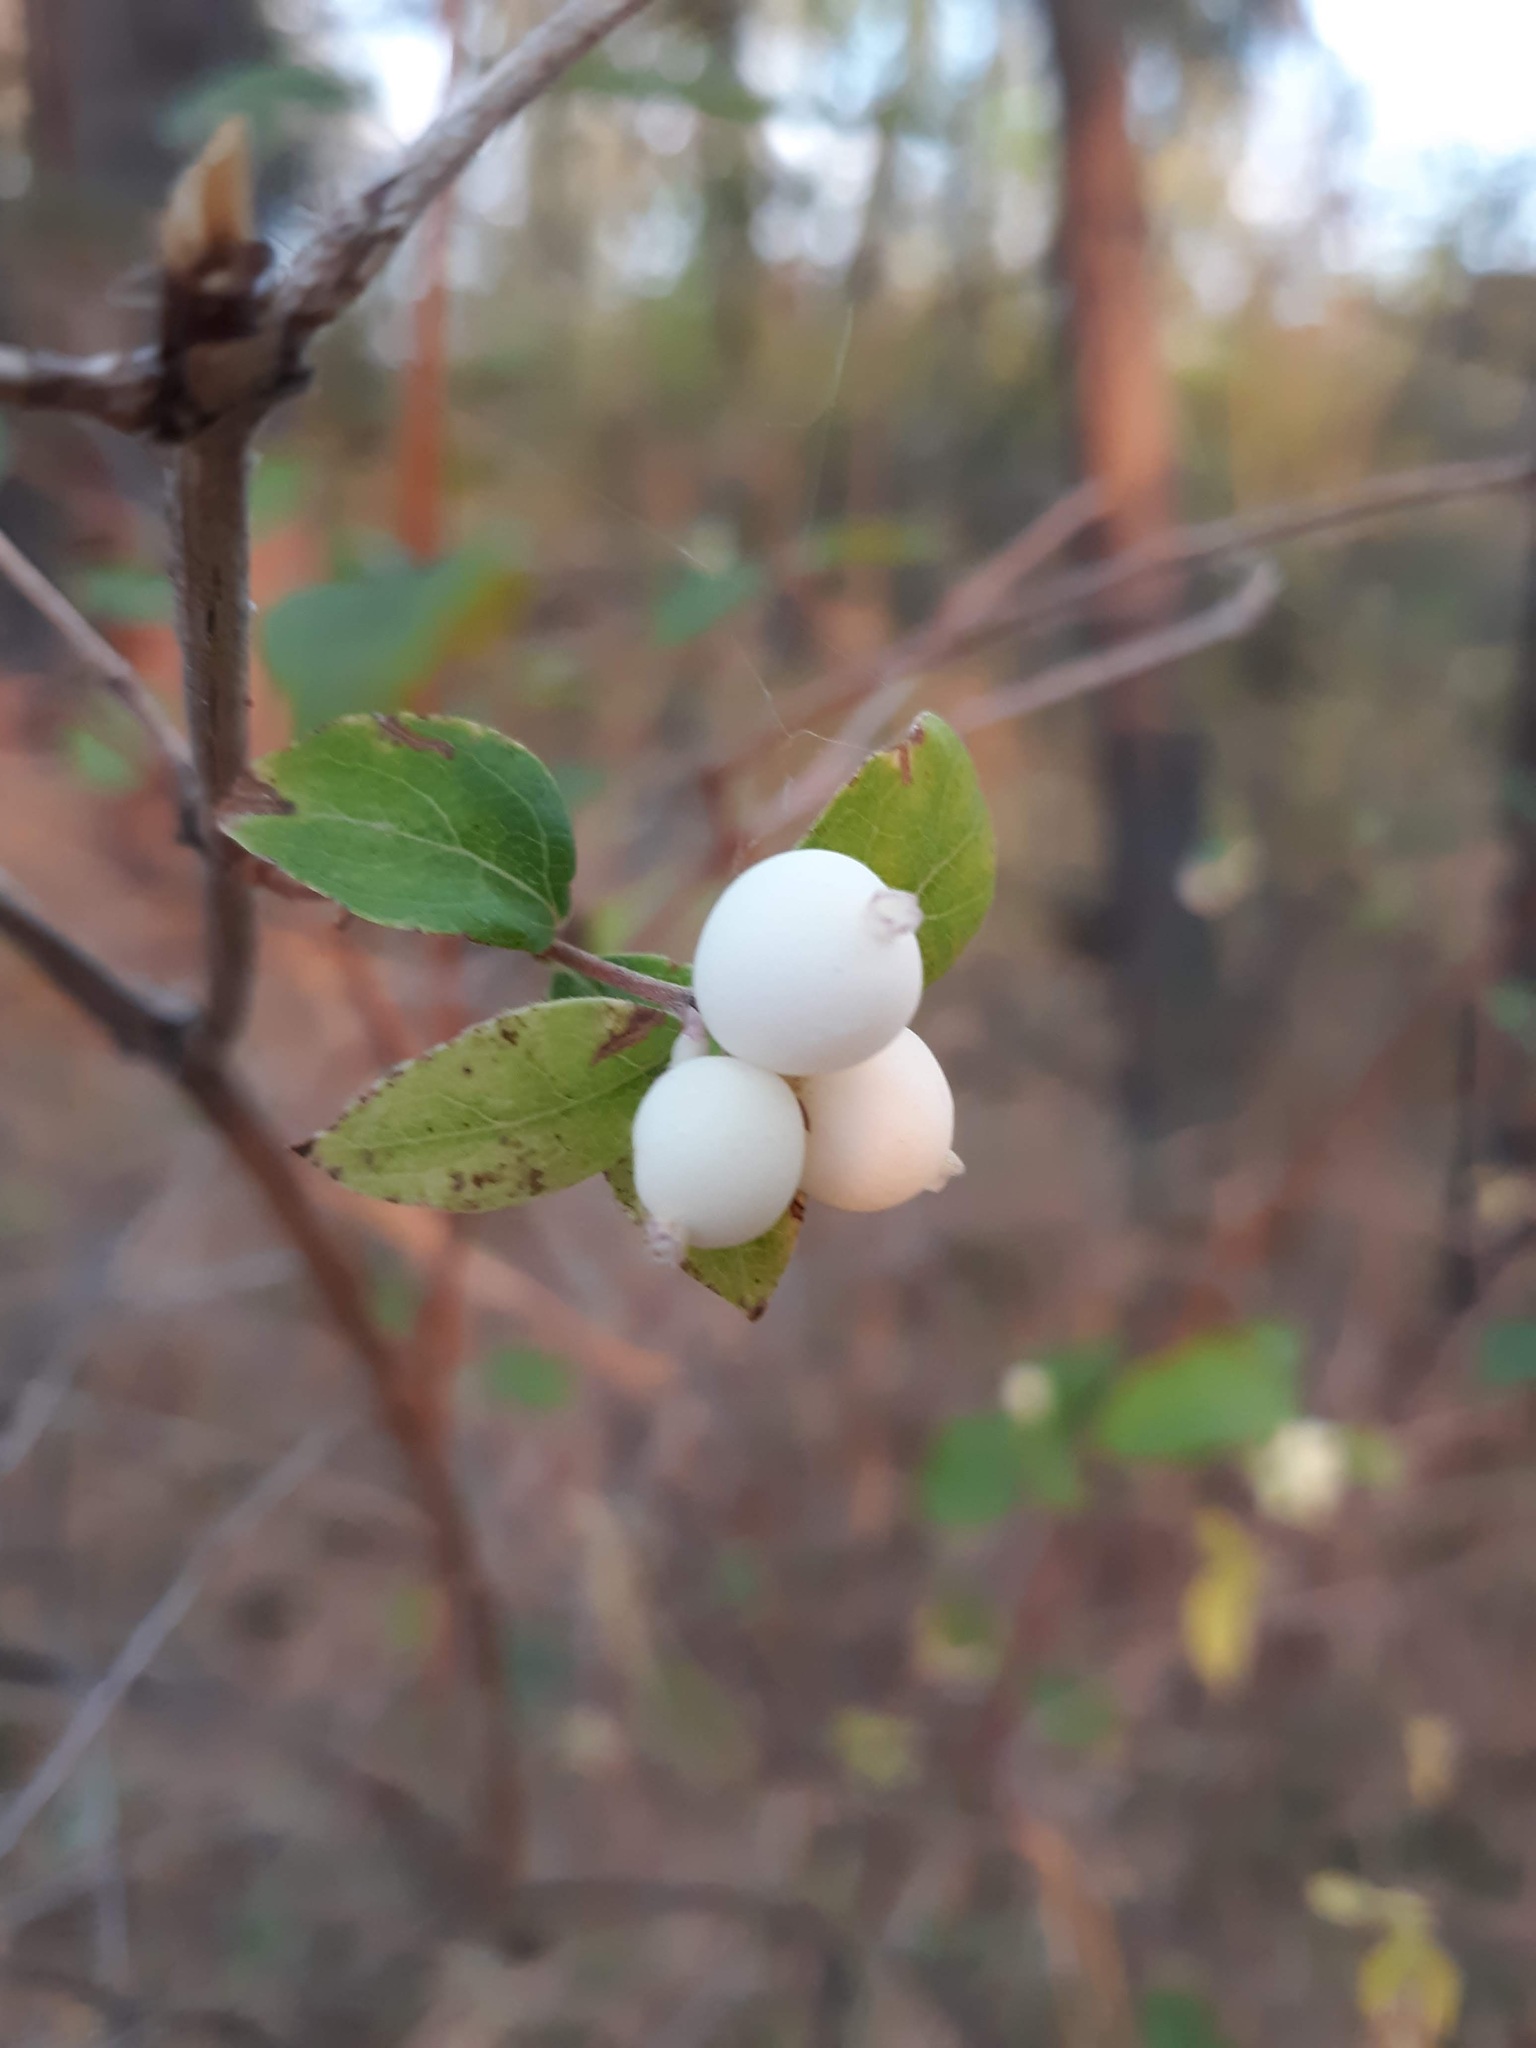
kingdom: Plantae
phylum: Tracheophyta
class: Magnoliopsida
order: Dipsacales
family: Caprifoliaceae
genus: Symphoricarpos
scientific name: Symphoricarpos albus
